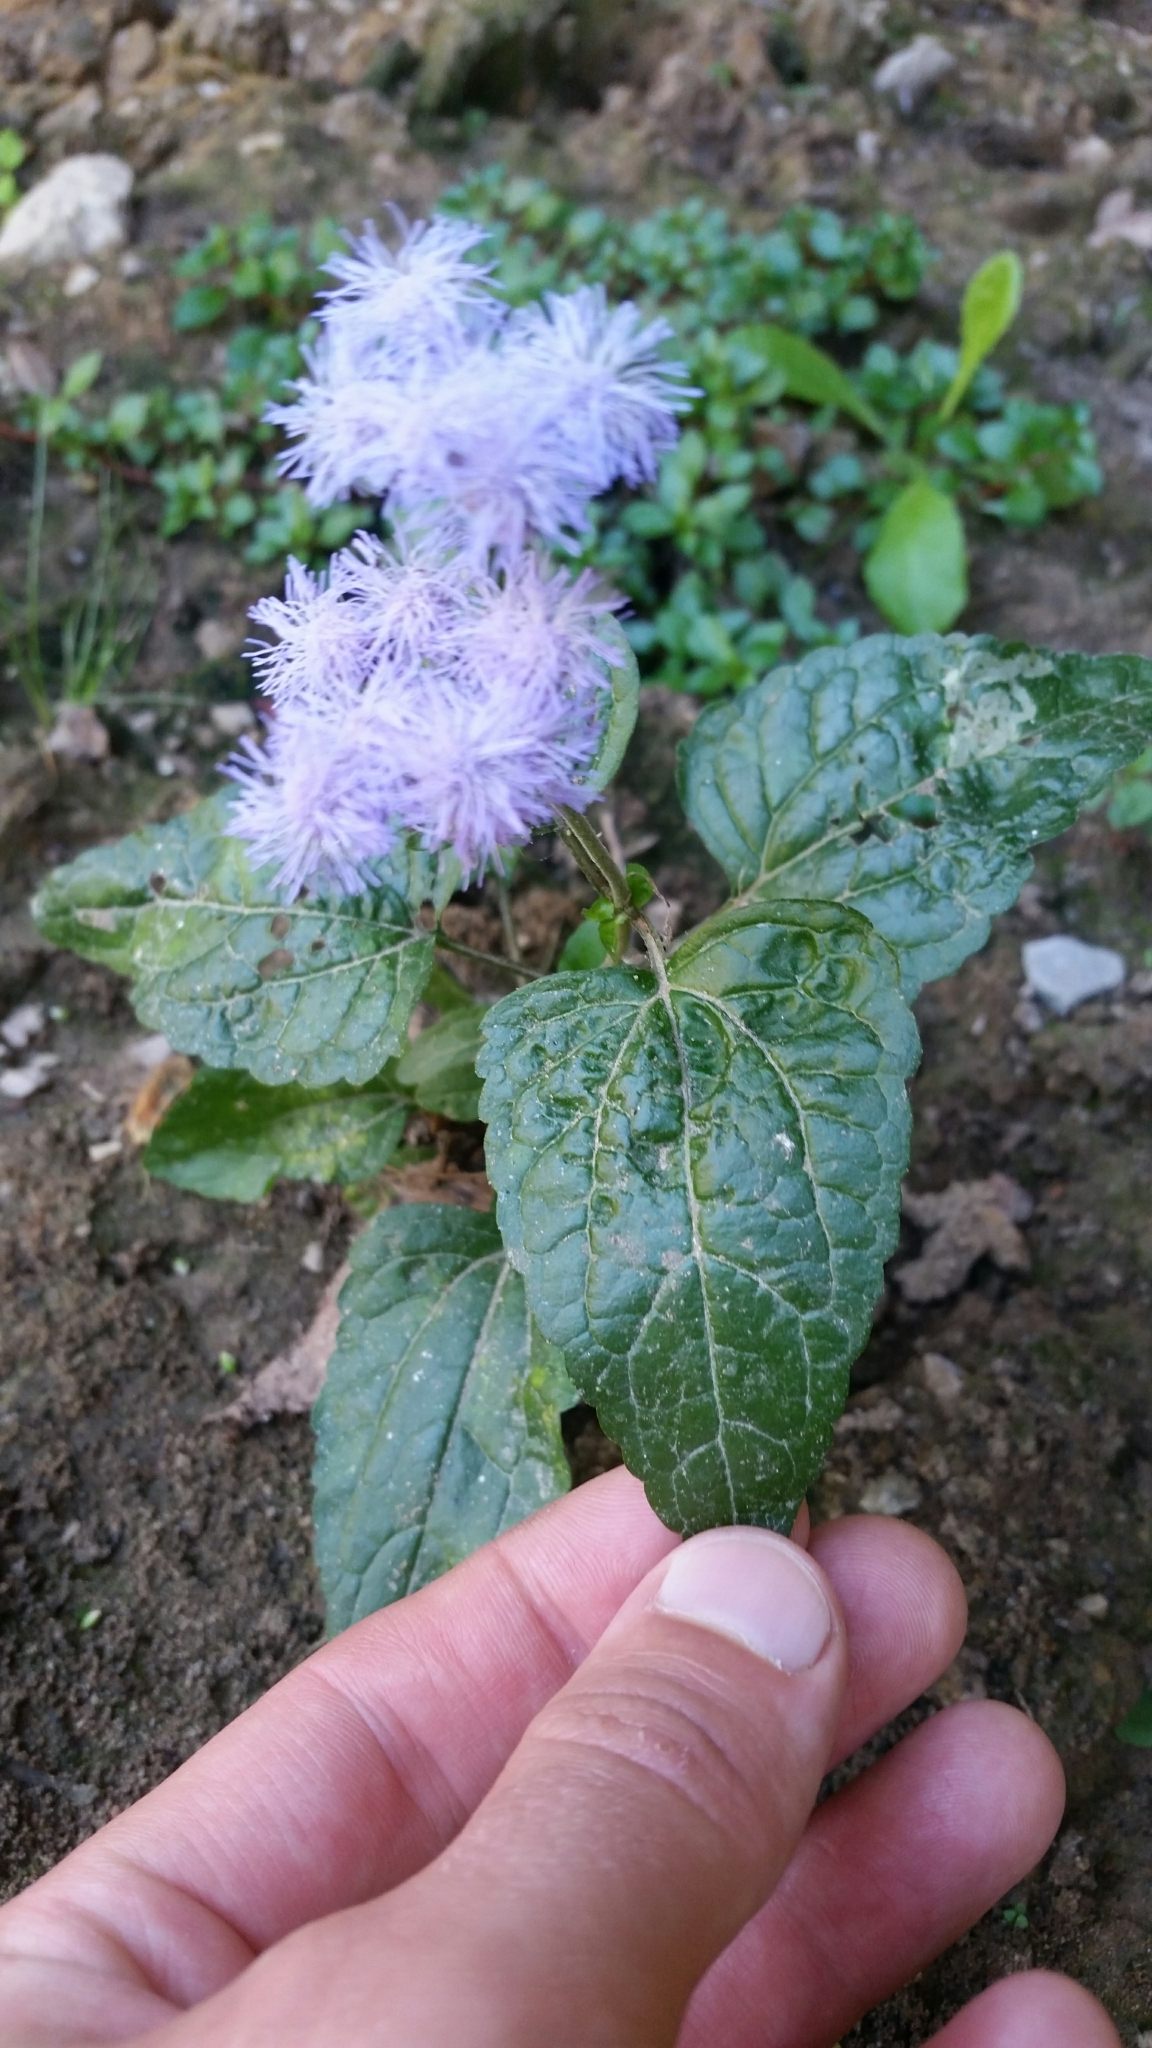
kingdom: Plantae
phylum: Tracheophyta
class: Magnoliopsida
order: Asterales
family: Asteraceae
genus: Conoclinium
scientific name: Conoclinium coelestinum
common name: Blue mistflower
